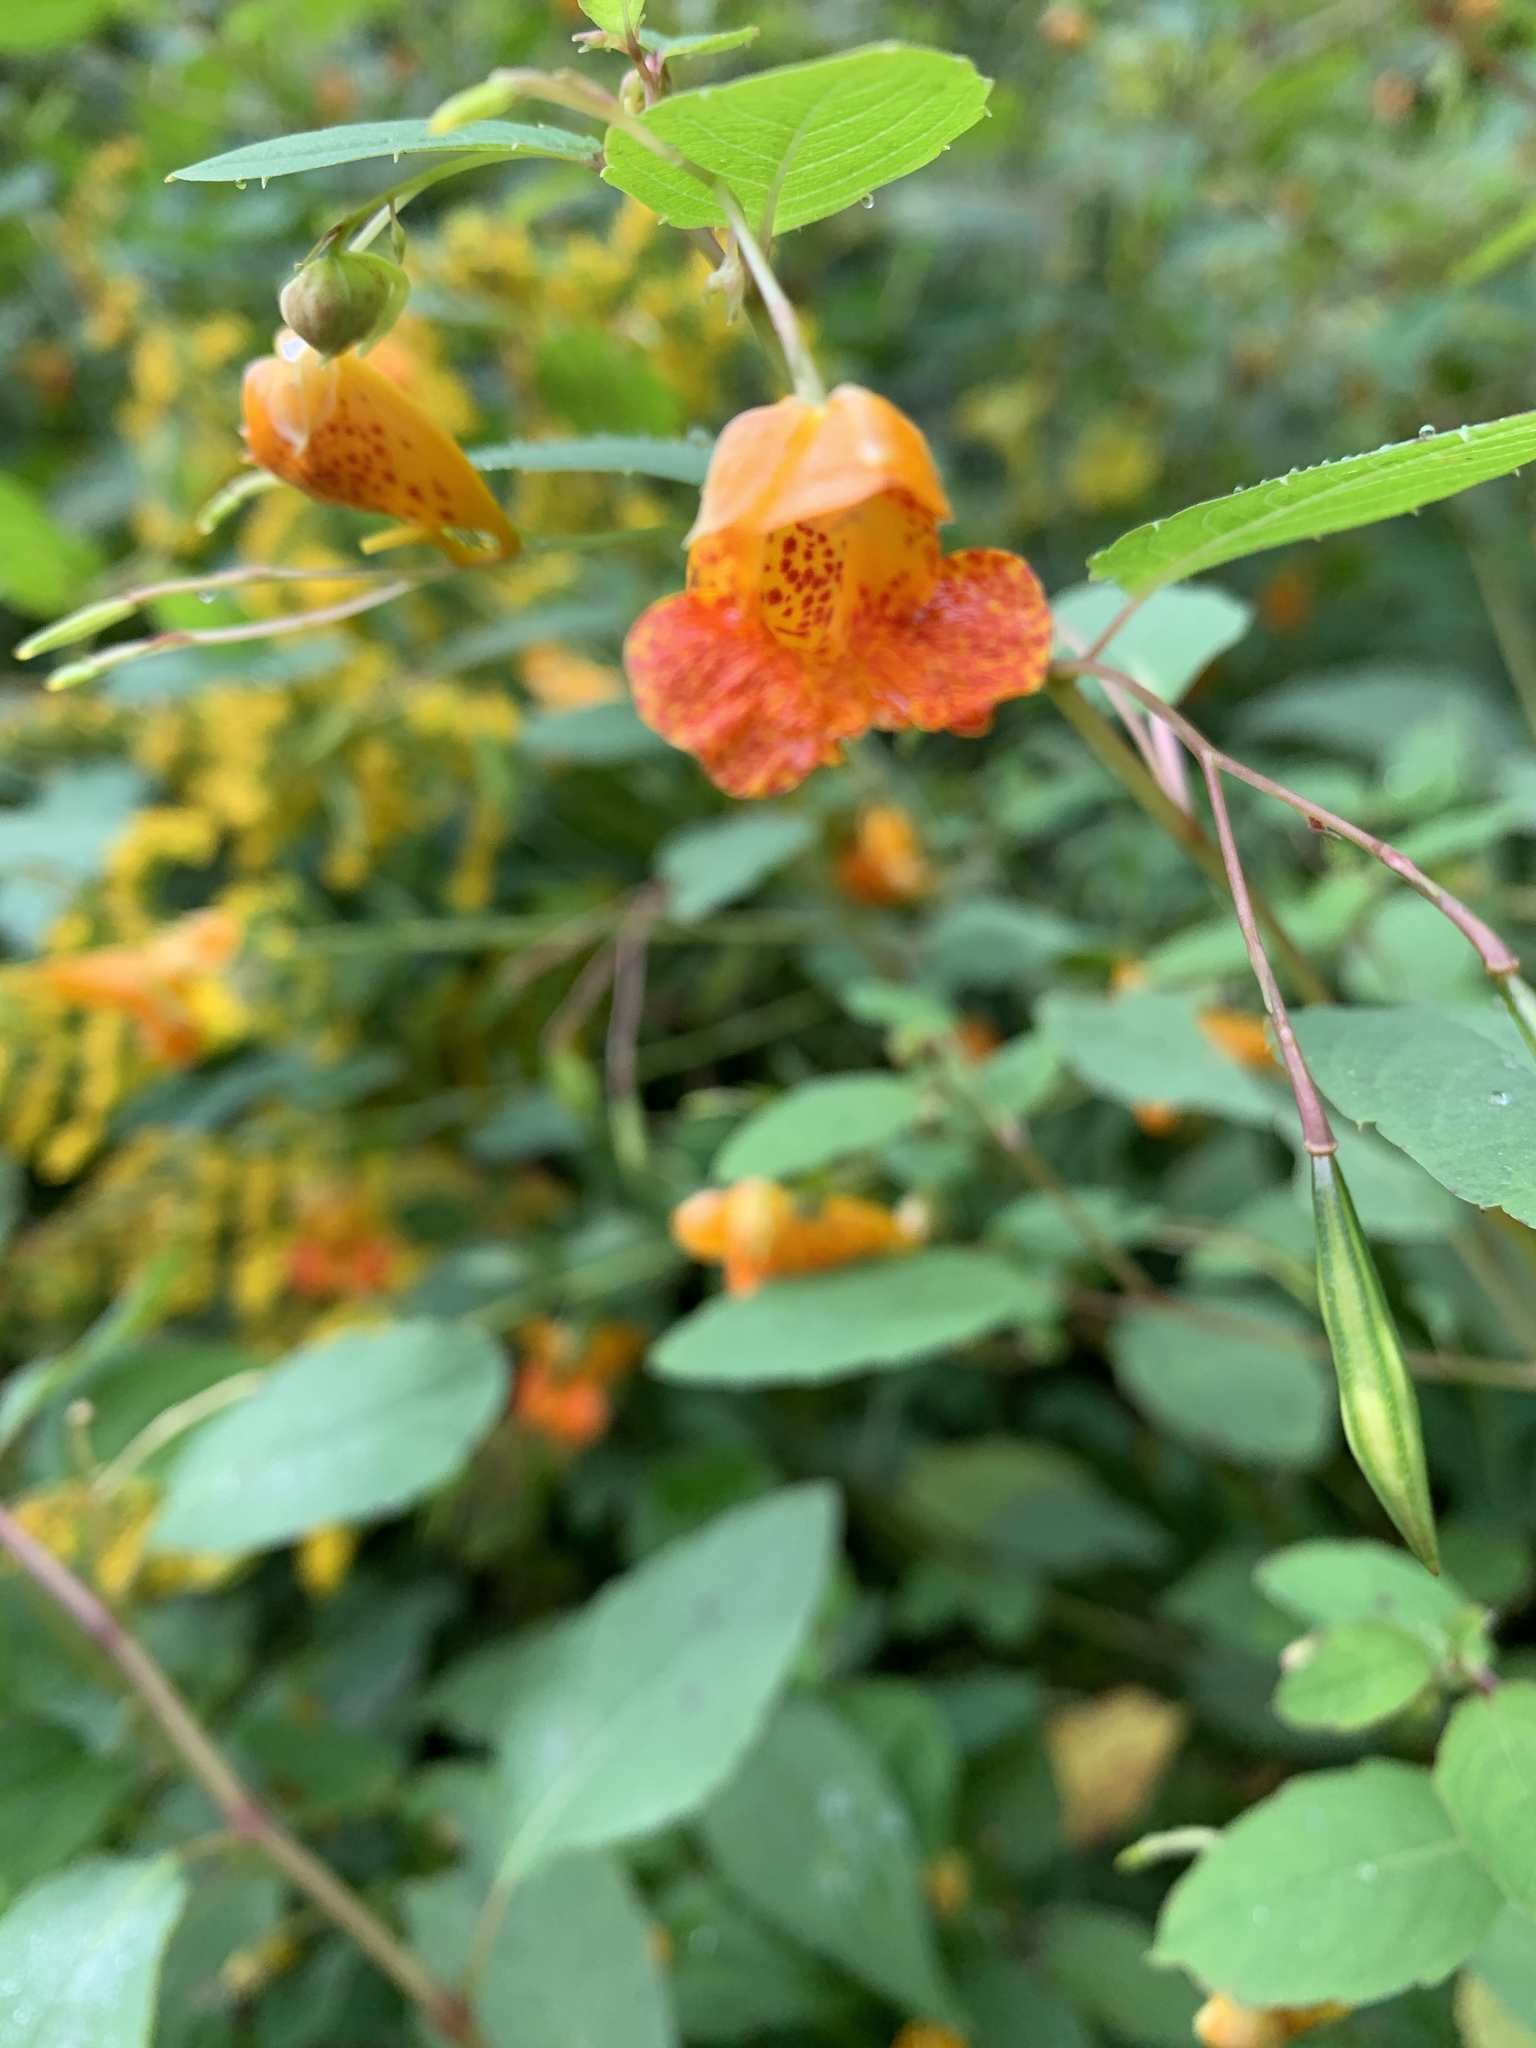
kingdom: Plantae
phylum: Tracheophyta
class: Magnoliopsida
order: Ericales
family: Balsaminaceae
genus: Impatiens
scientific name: Impatiens capensis
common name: Orange balsam
